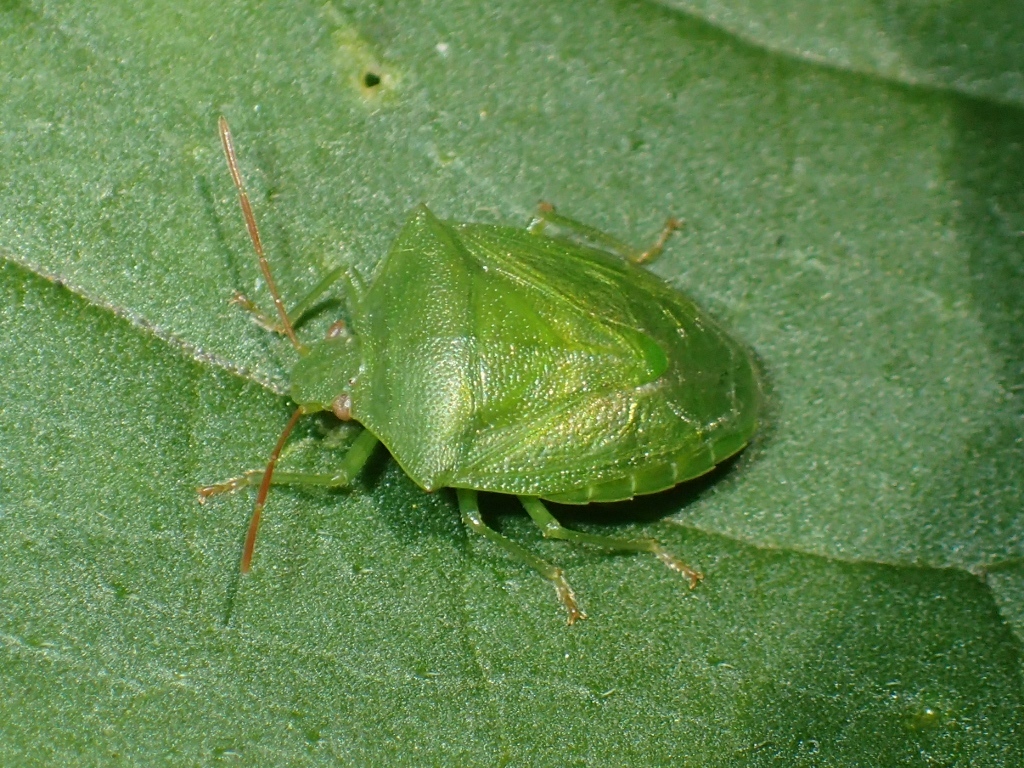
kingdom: Animalia
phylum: Arthropoda
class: Insecta
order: Hemiptera
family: Pentatomidae
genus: Cuspicona
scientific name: Cuspicona simplex
